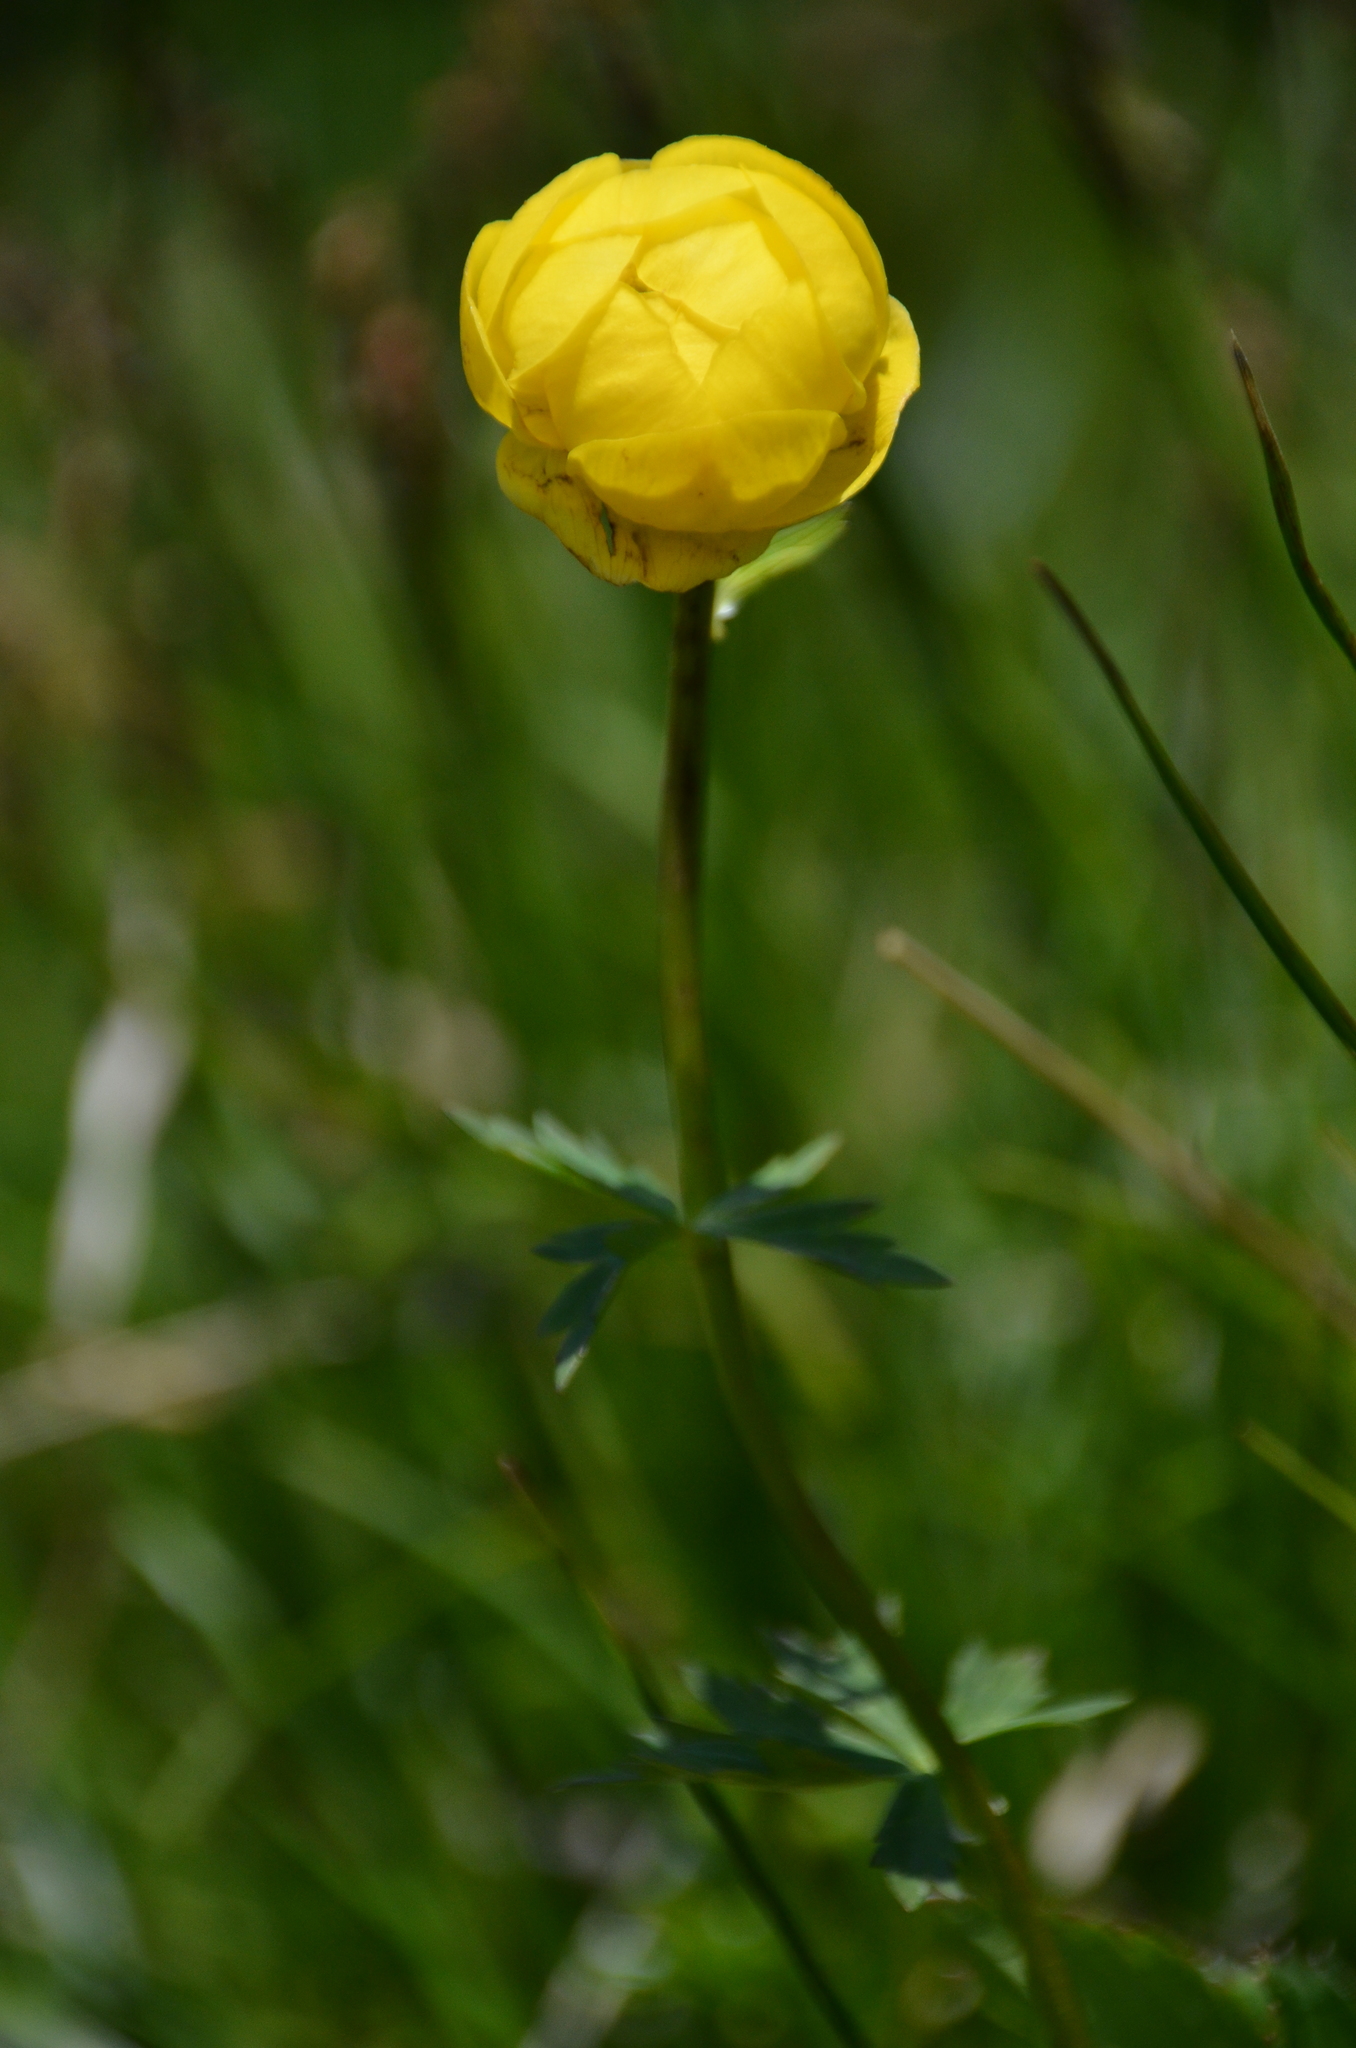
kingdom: Plantae
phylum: Tracheophyta
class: Magnoliopsida
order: Ranunculales
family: Ranunculaceae
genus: Trollius
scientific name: Trollius europaeus
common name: European globeflower
